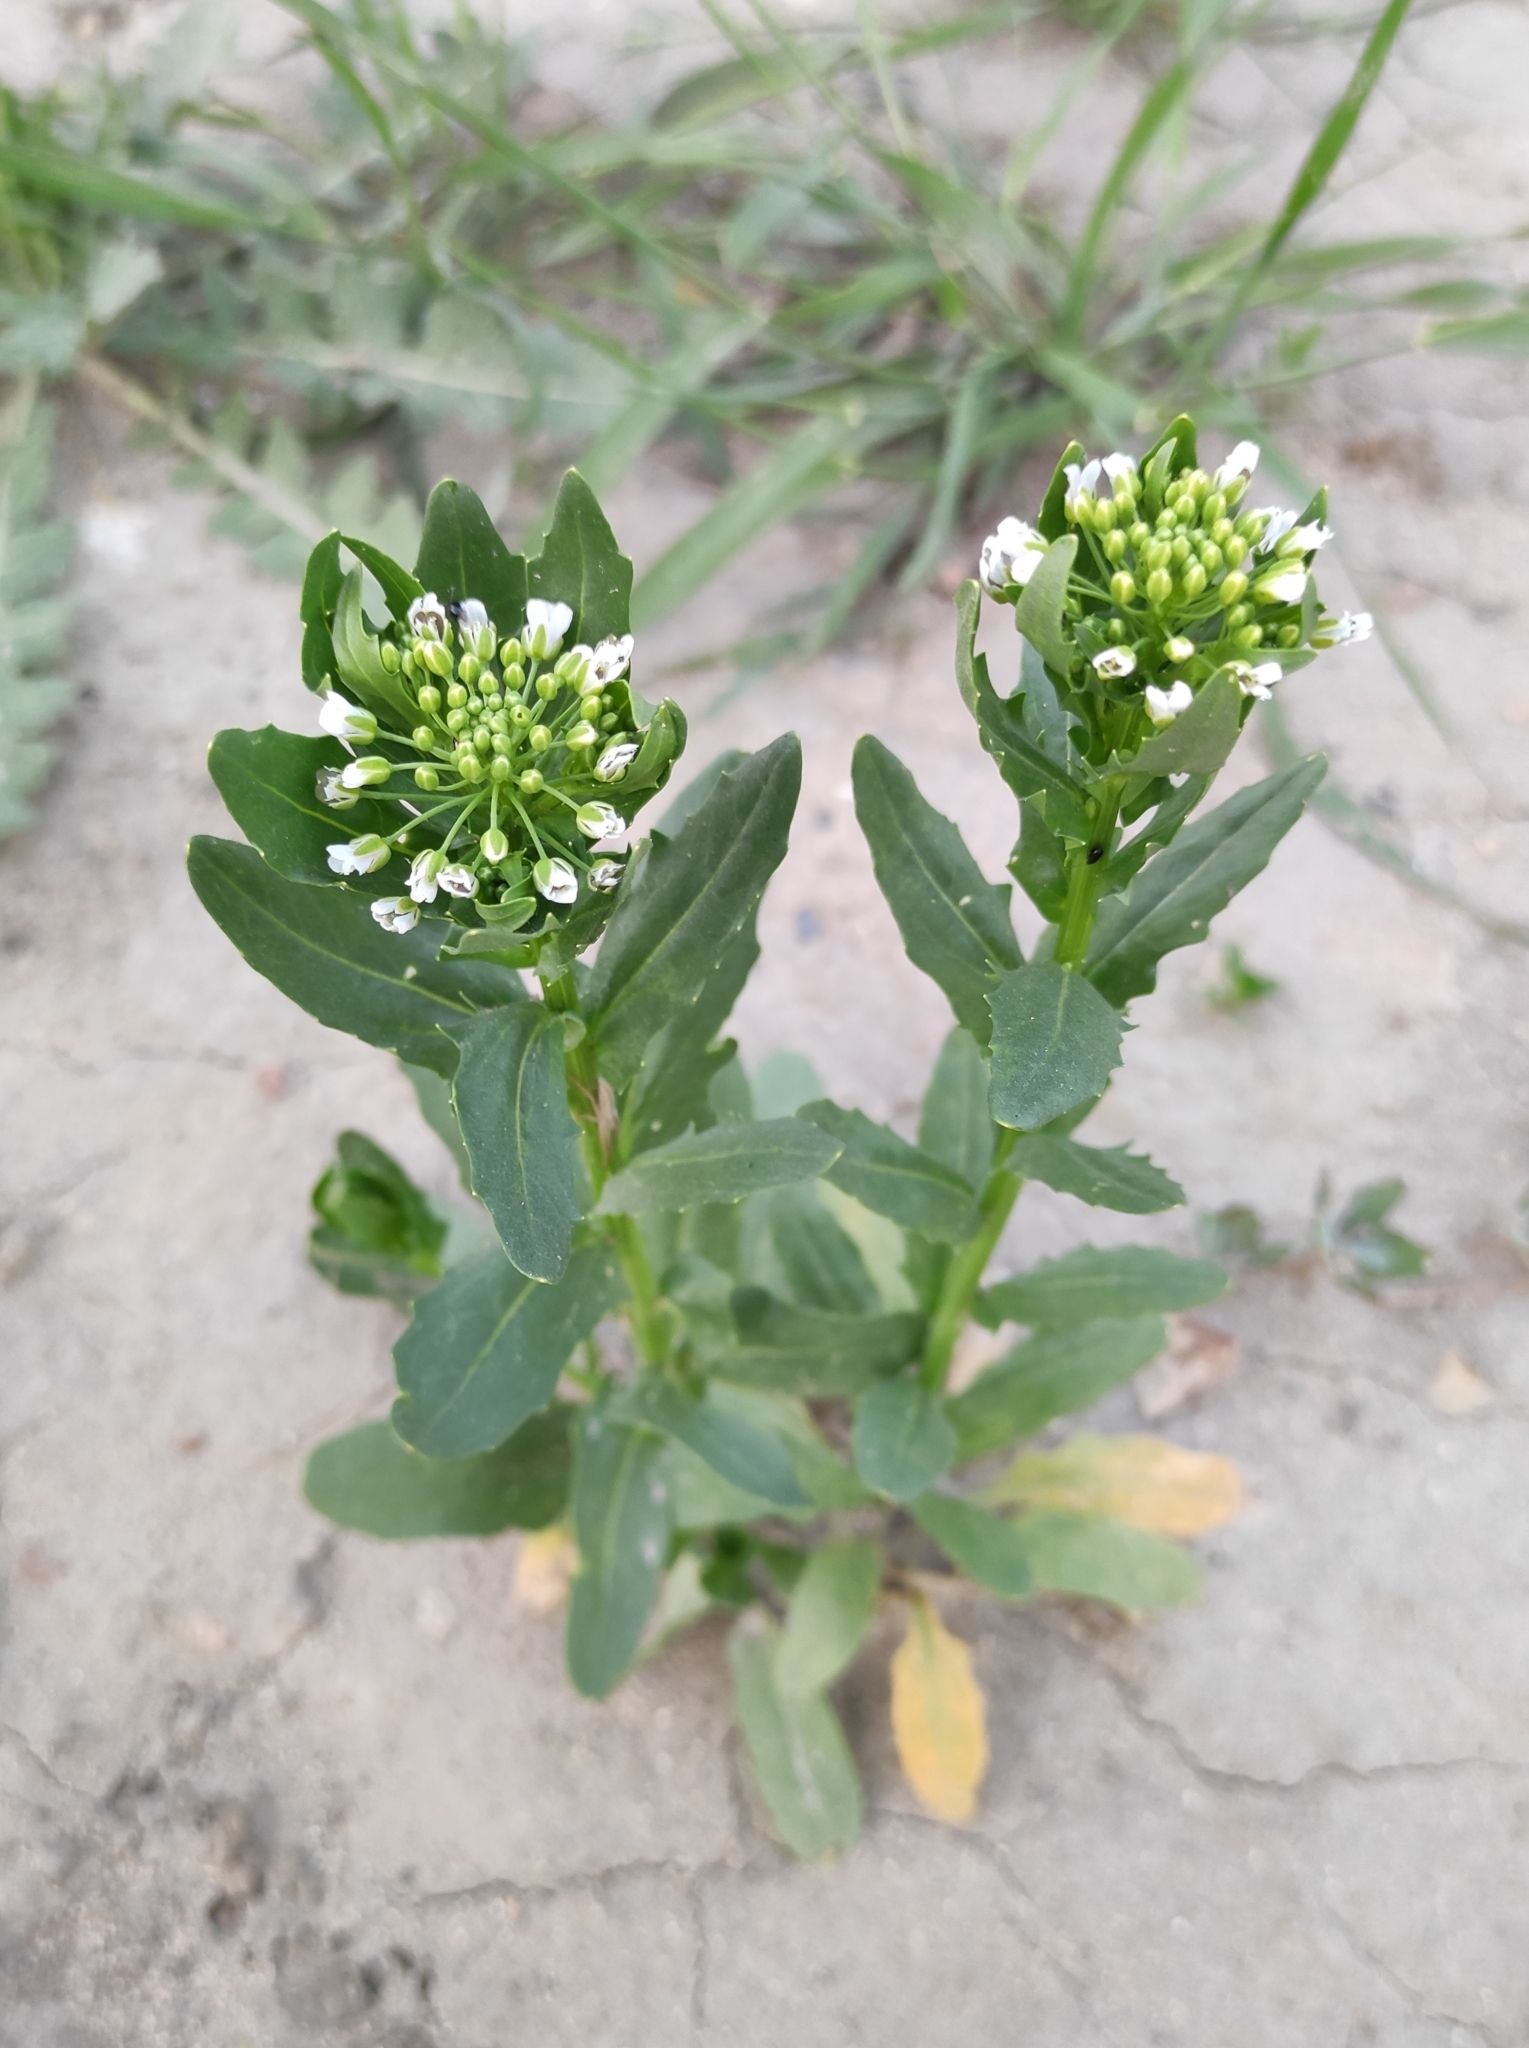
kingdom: Plantae
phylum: Tracheophyta
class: Magnoliopsida
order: Brassicales
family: Brassicaceae
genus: Thlaspi
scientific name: Thlaspi arvense
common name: Field pennycress
